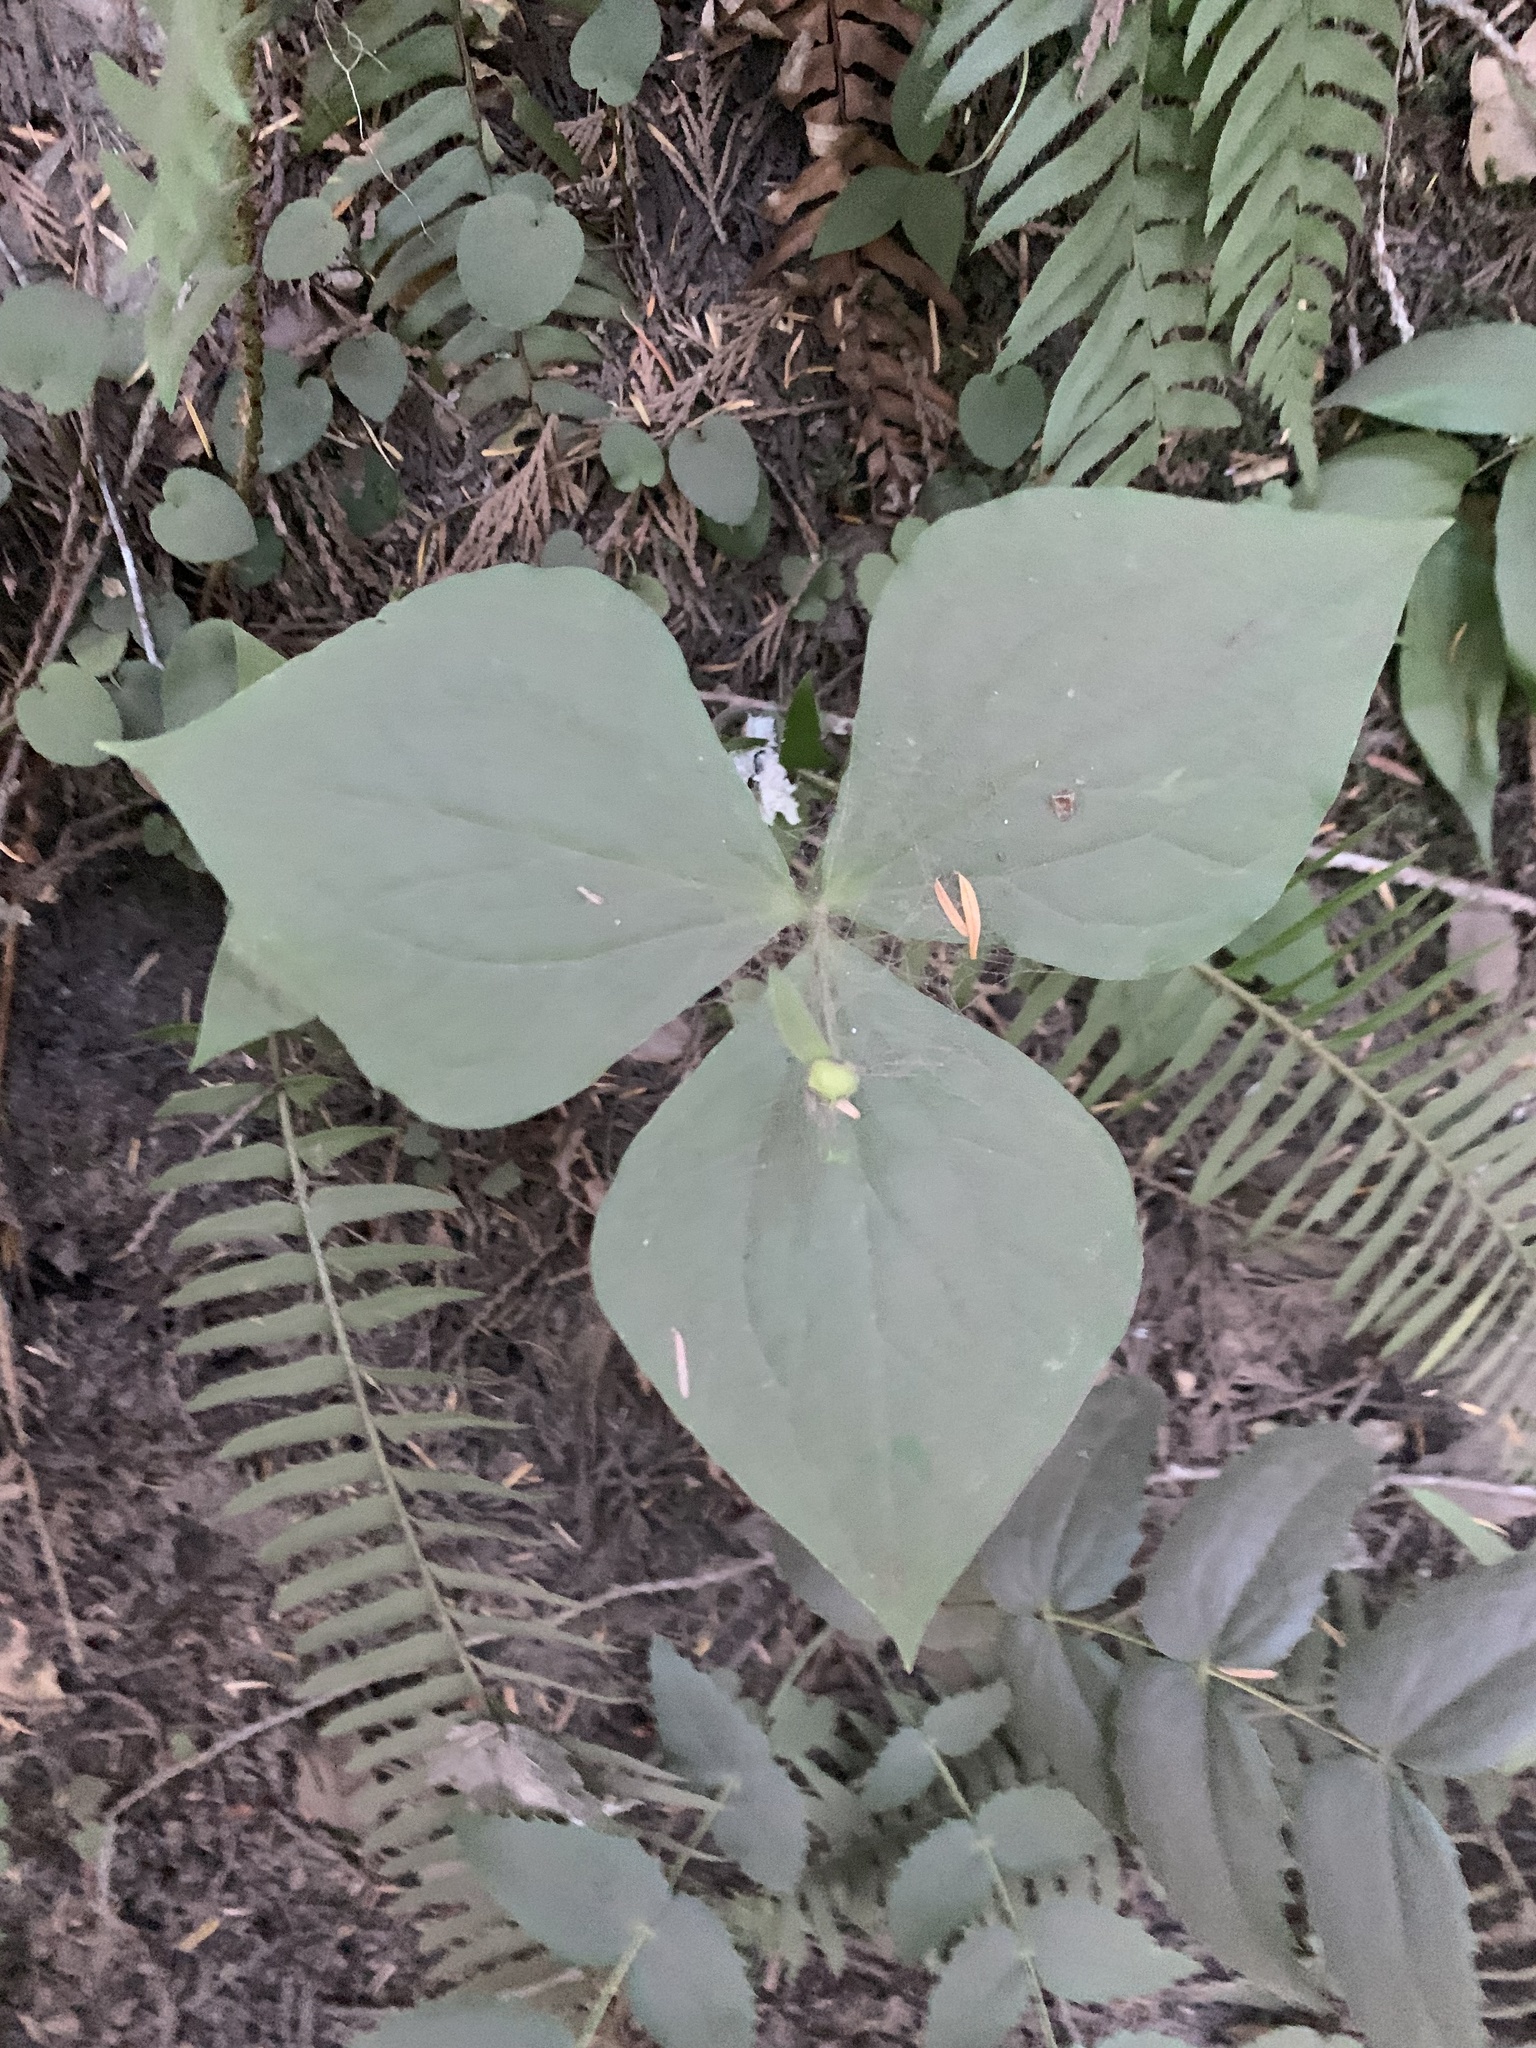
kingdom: Plantae
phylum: Tracheophyta
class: Liliopsida
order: Liliales
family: Melanthiaceae
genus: Trillium
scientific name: Trillium ovatum
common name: Pacific trillium
